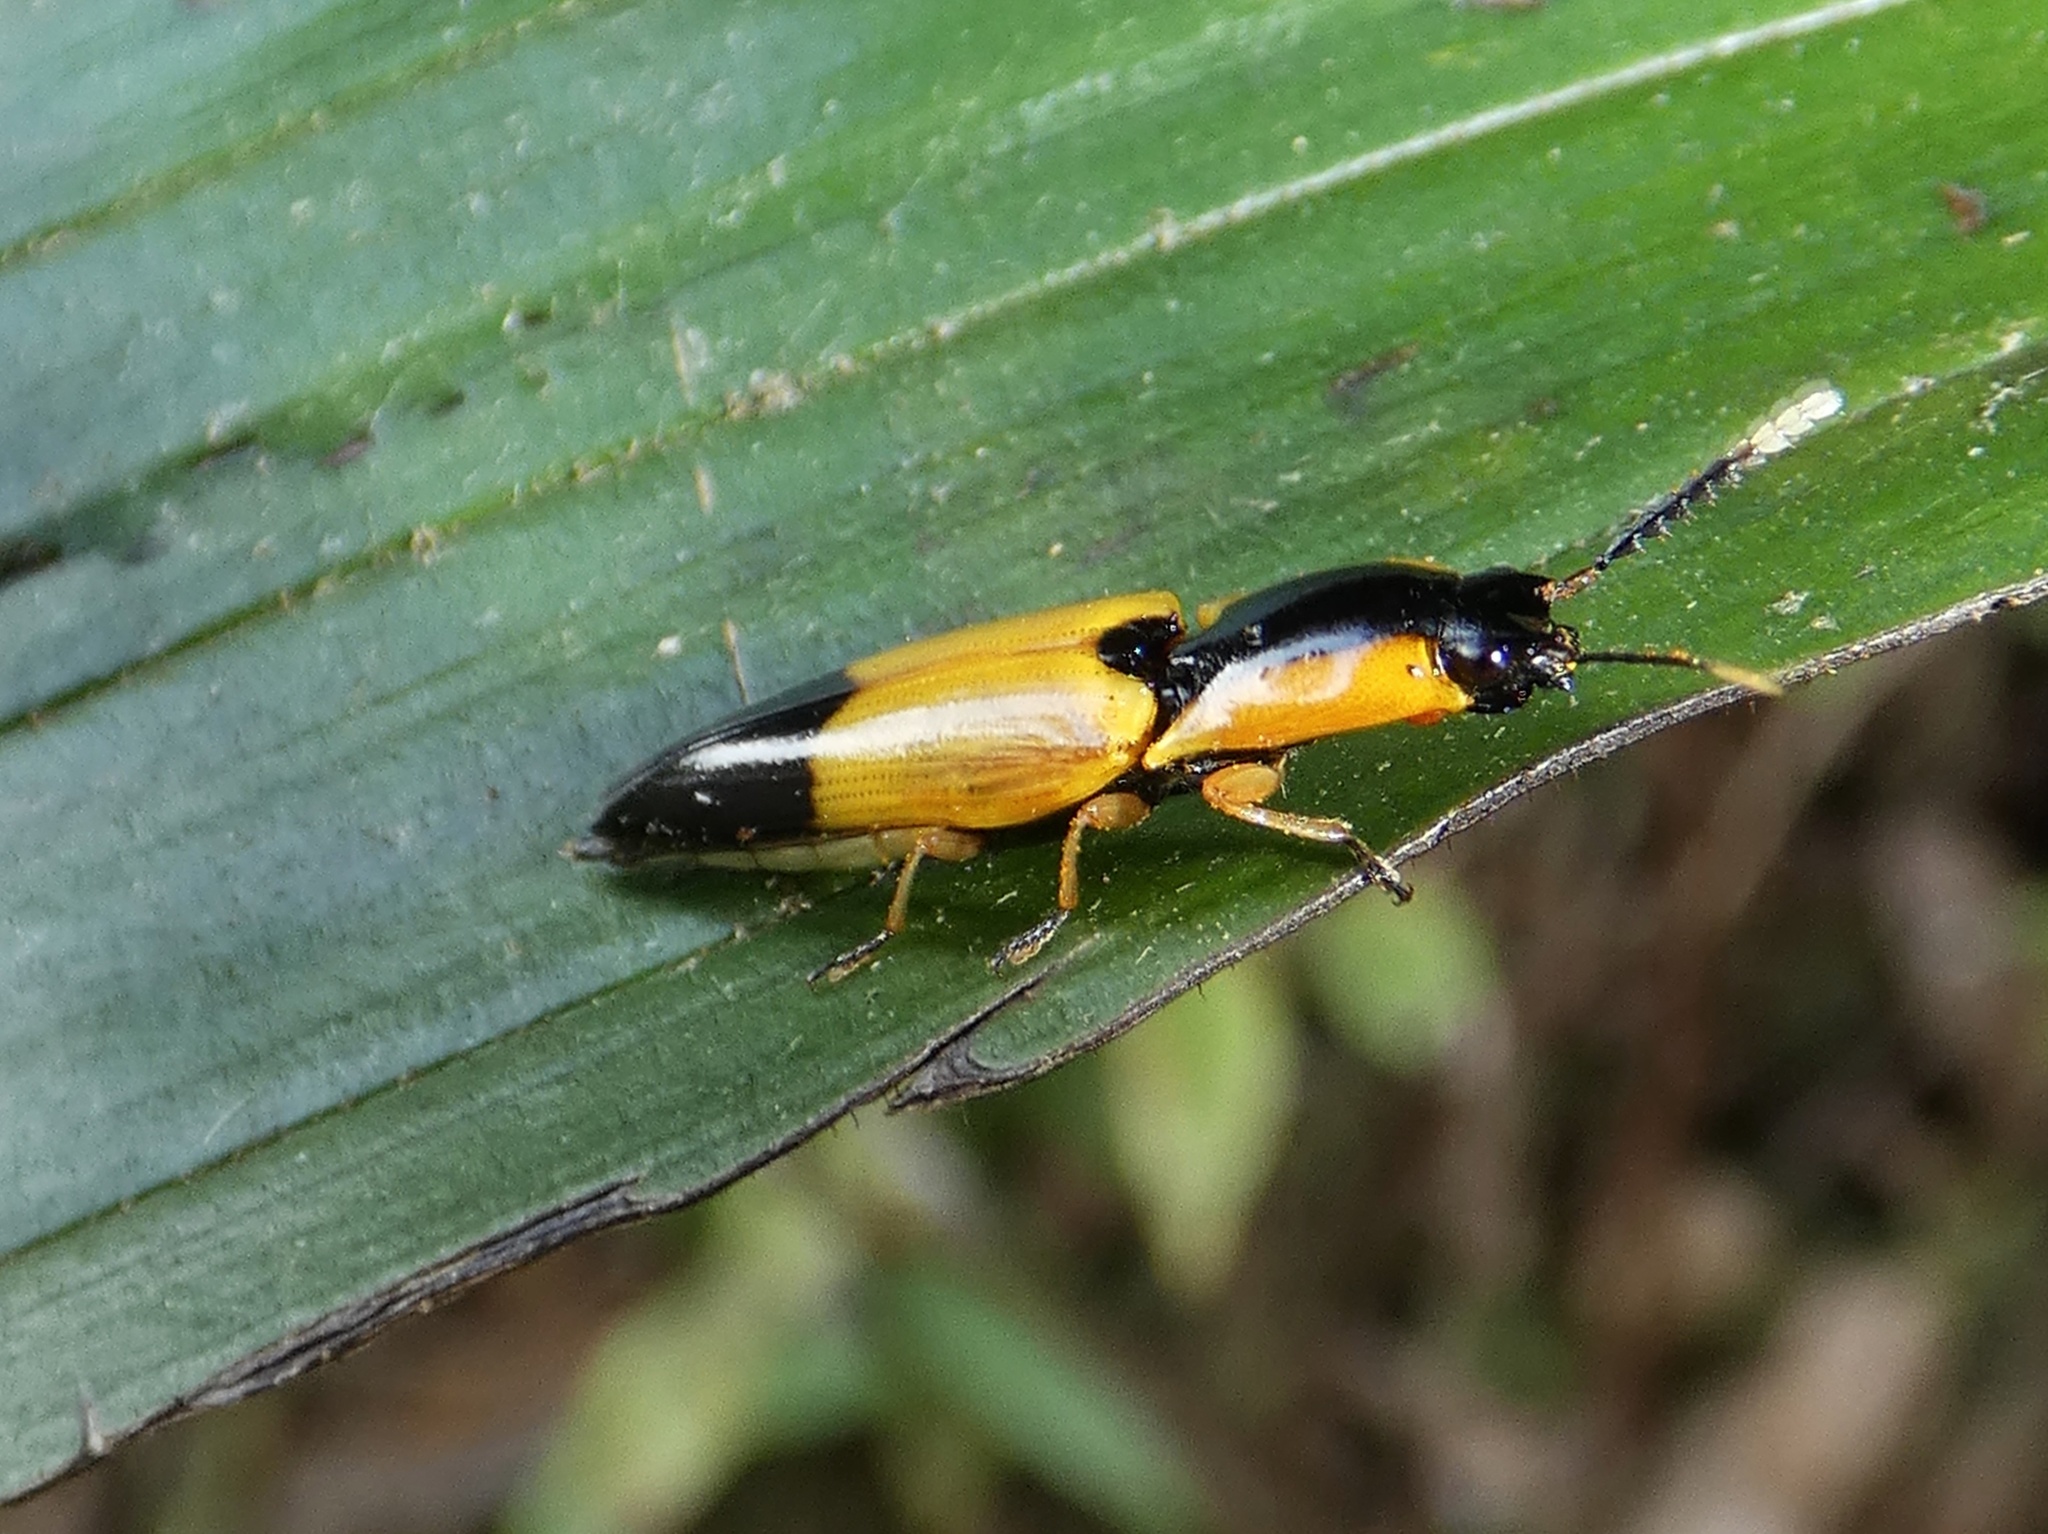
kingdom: Animalia
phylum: Arthropoda
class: Insecta
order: Coleoptera
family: Elateridae
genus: Semiotus
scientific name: Semiotus
